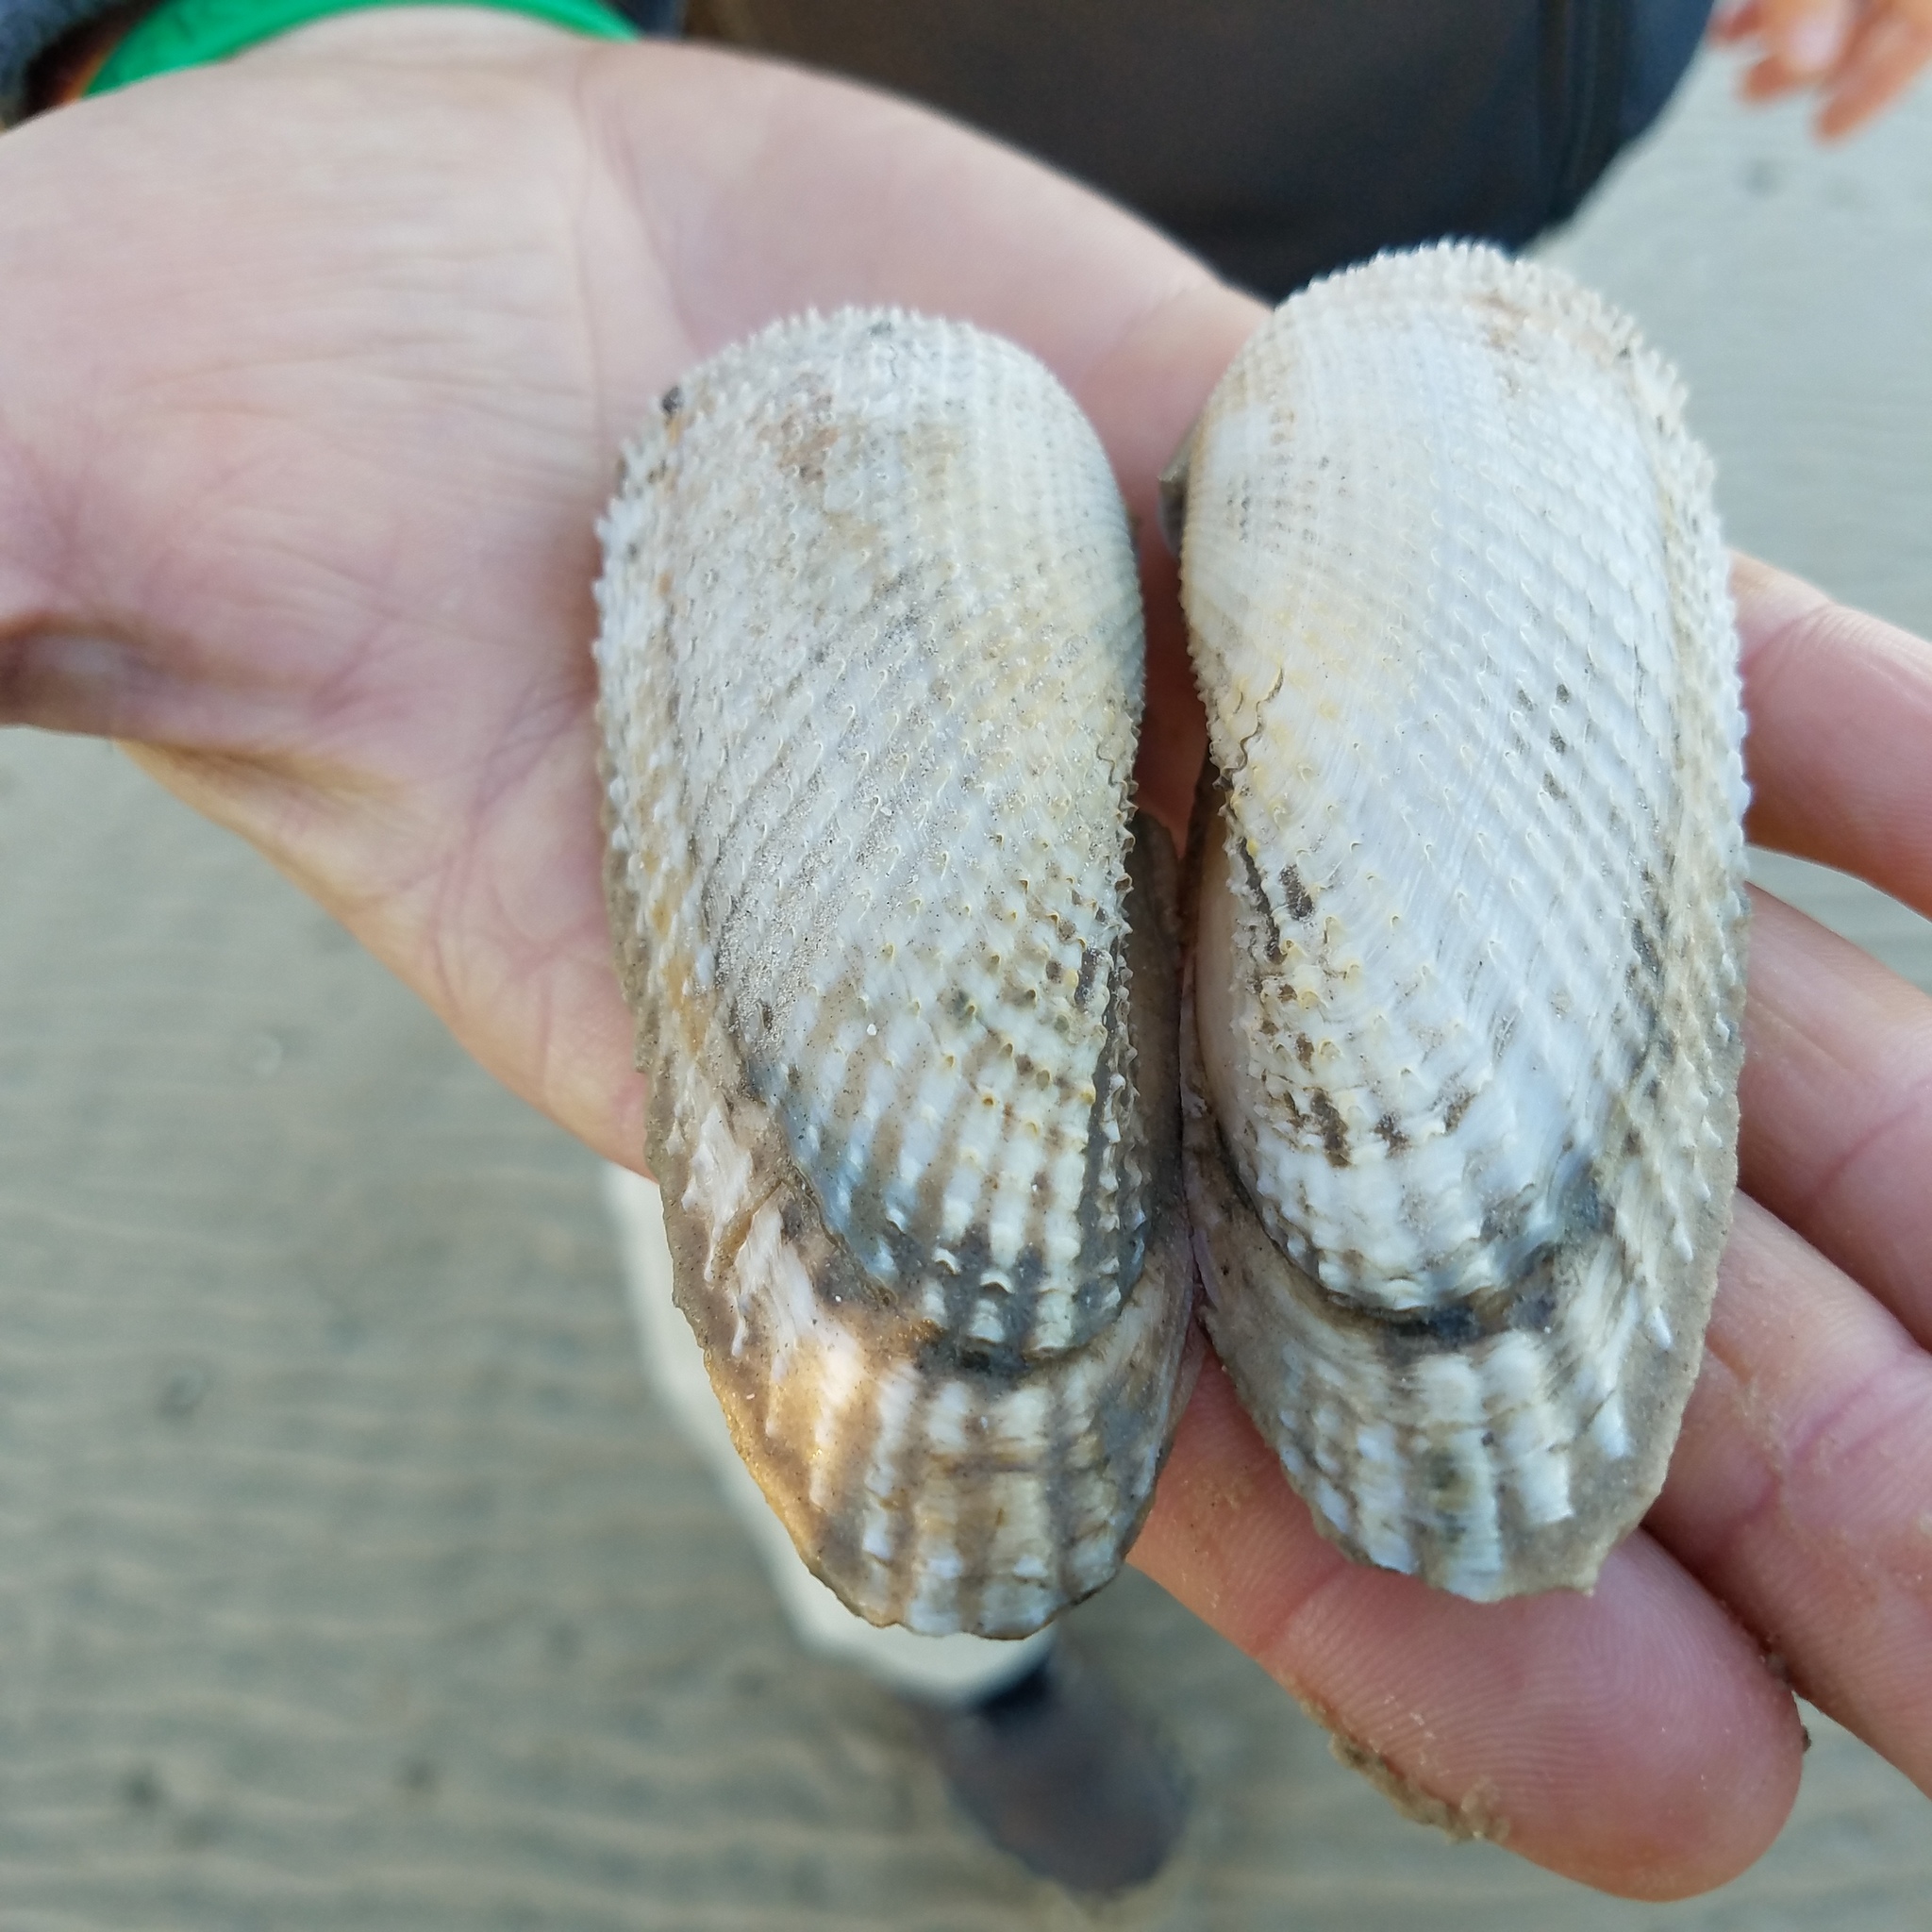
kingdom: Animalia
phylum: Mollusca
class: Bivalvia
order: Myida
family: Pholadidae
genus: Cyrtopleura
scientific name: Cyrtopleura costata
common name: Angel wing
